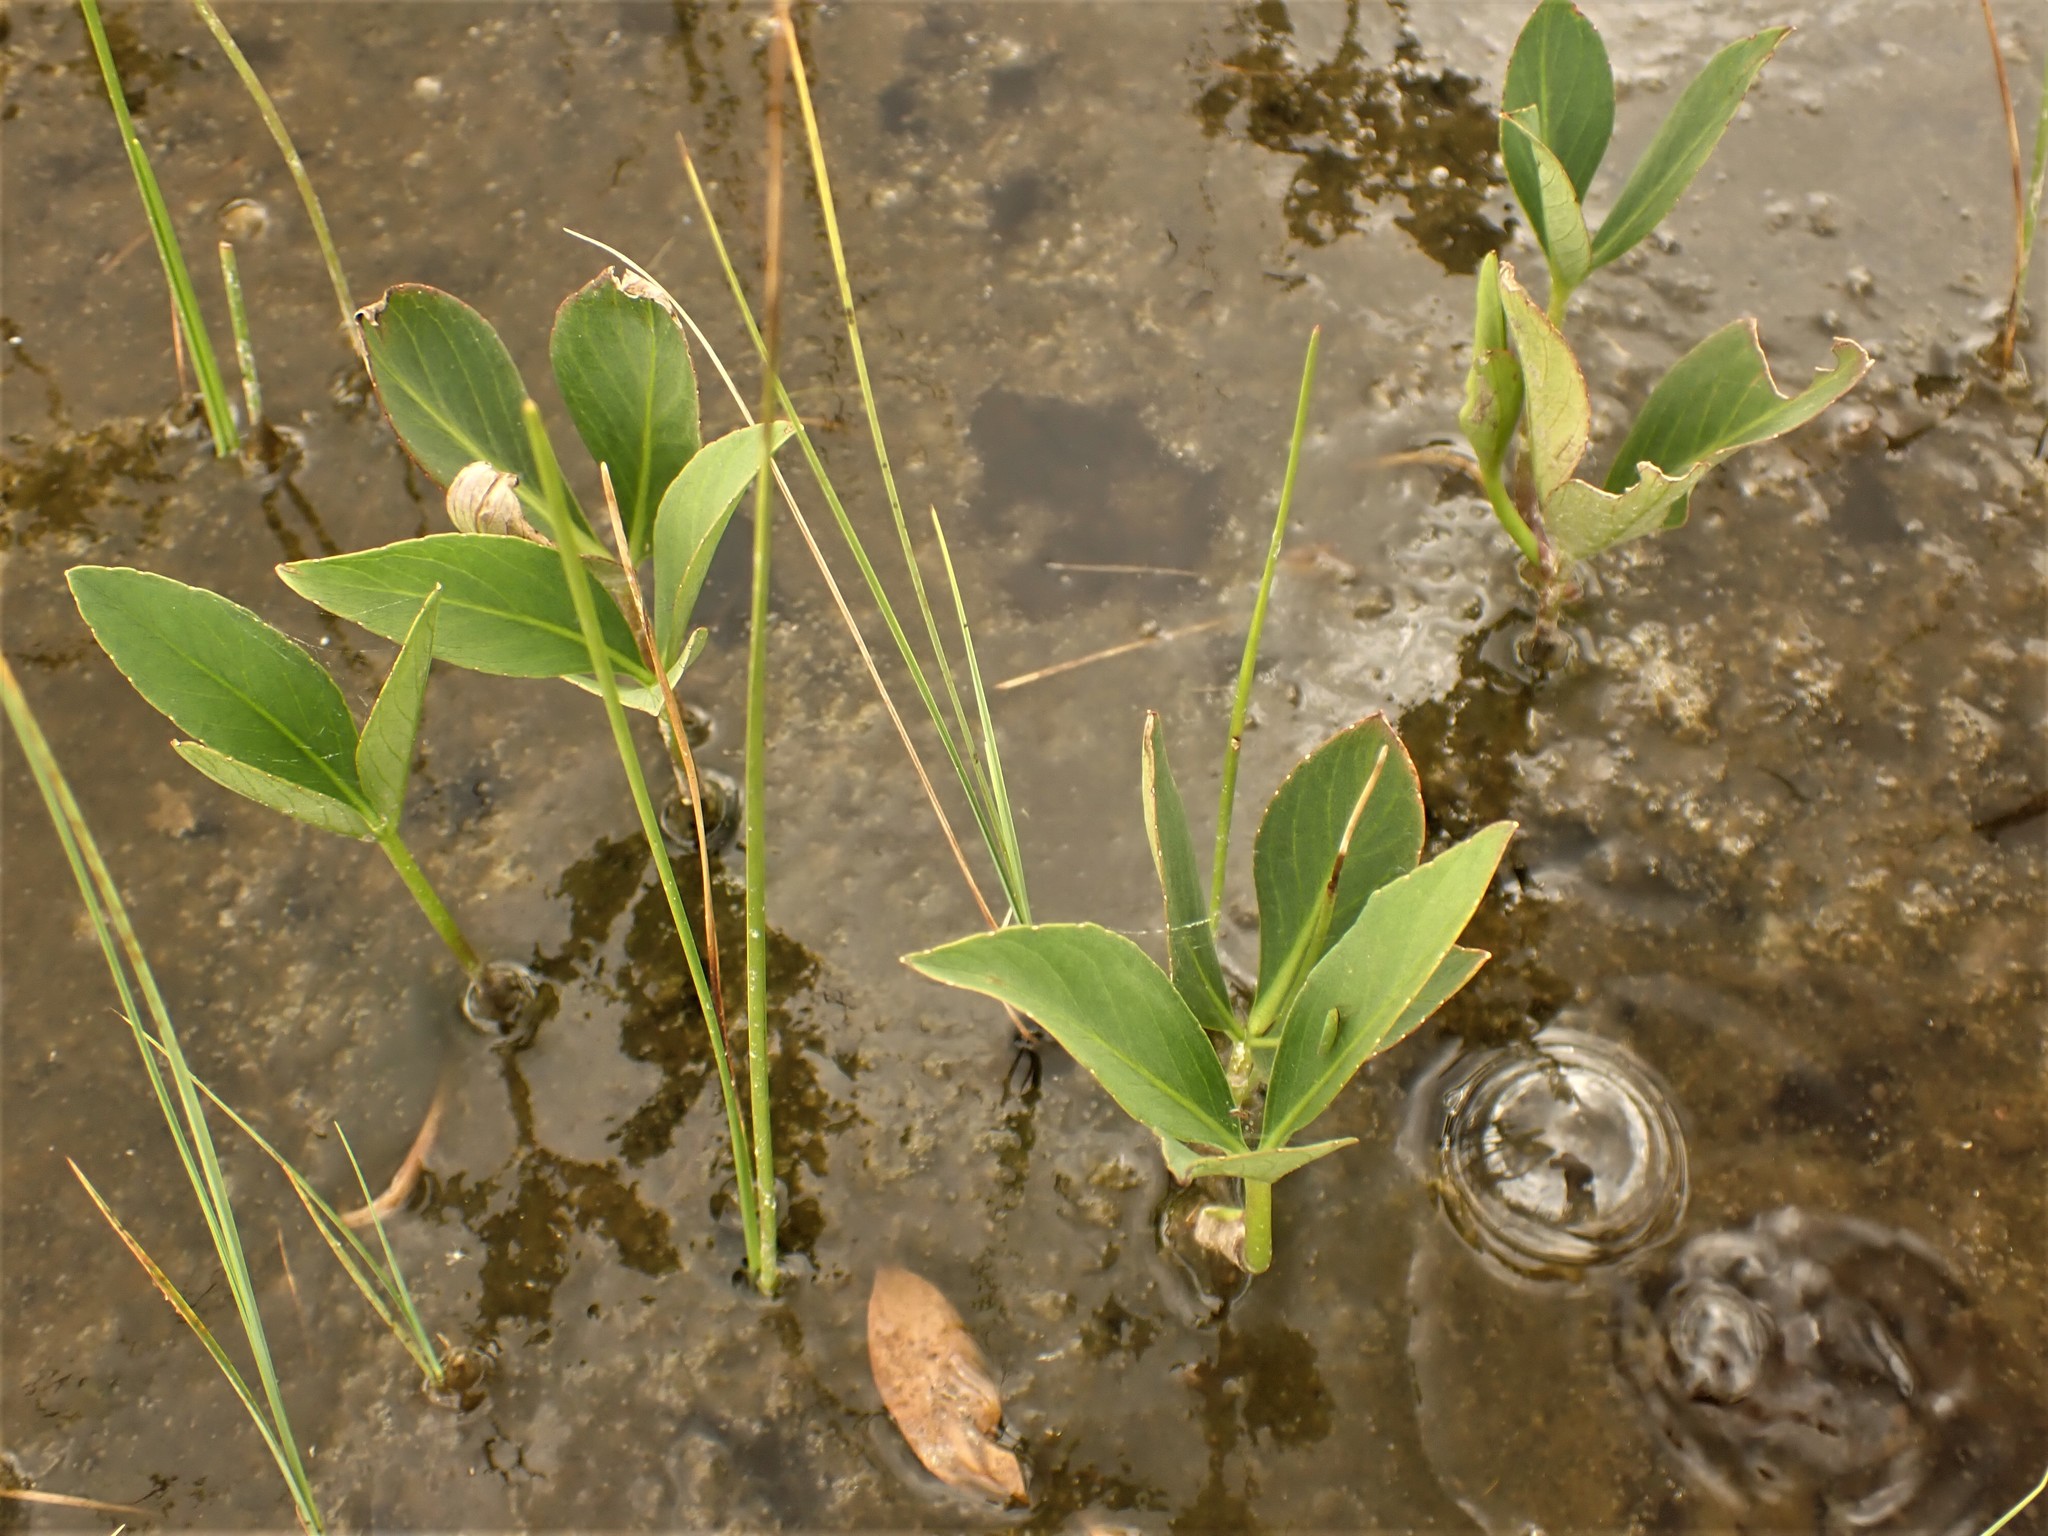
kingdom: Plantae
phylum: Tracheophyta
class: Magnoliopsida
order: Asterales
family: Menyanthaceae
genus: Menyanthes
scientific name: Menyanthes trifoliata
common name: Bogbean
